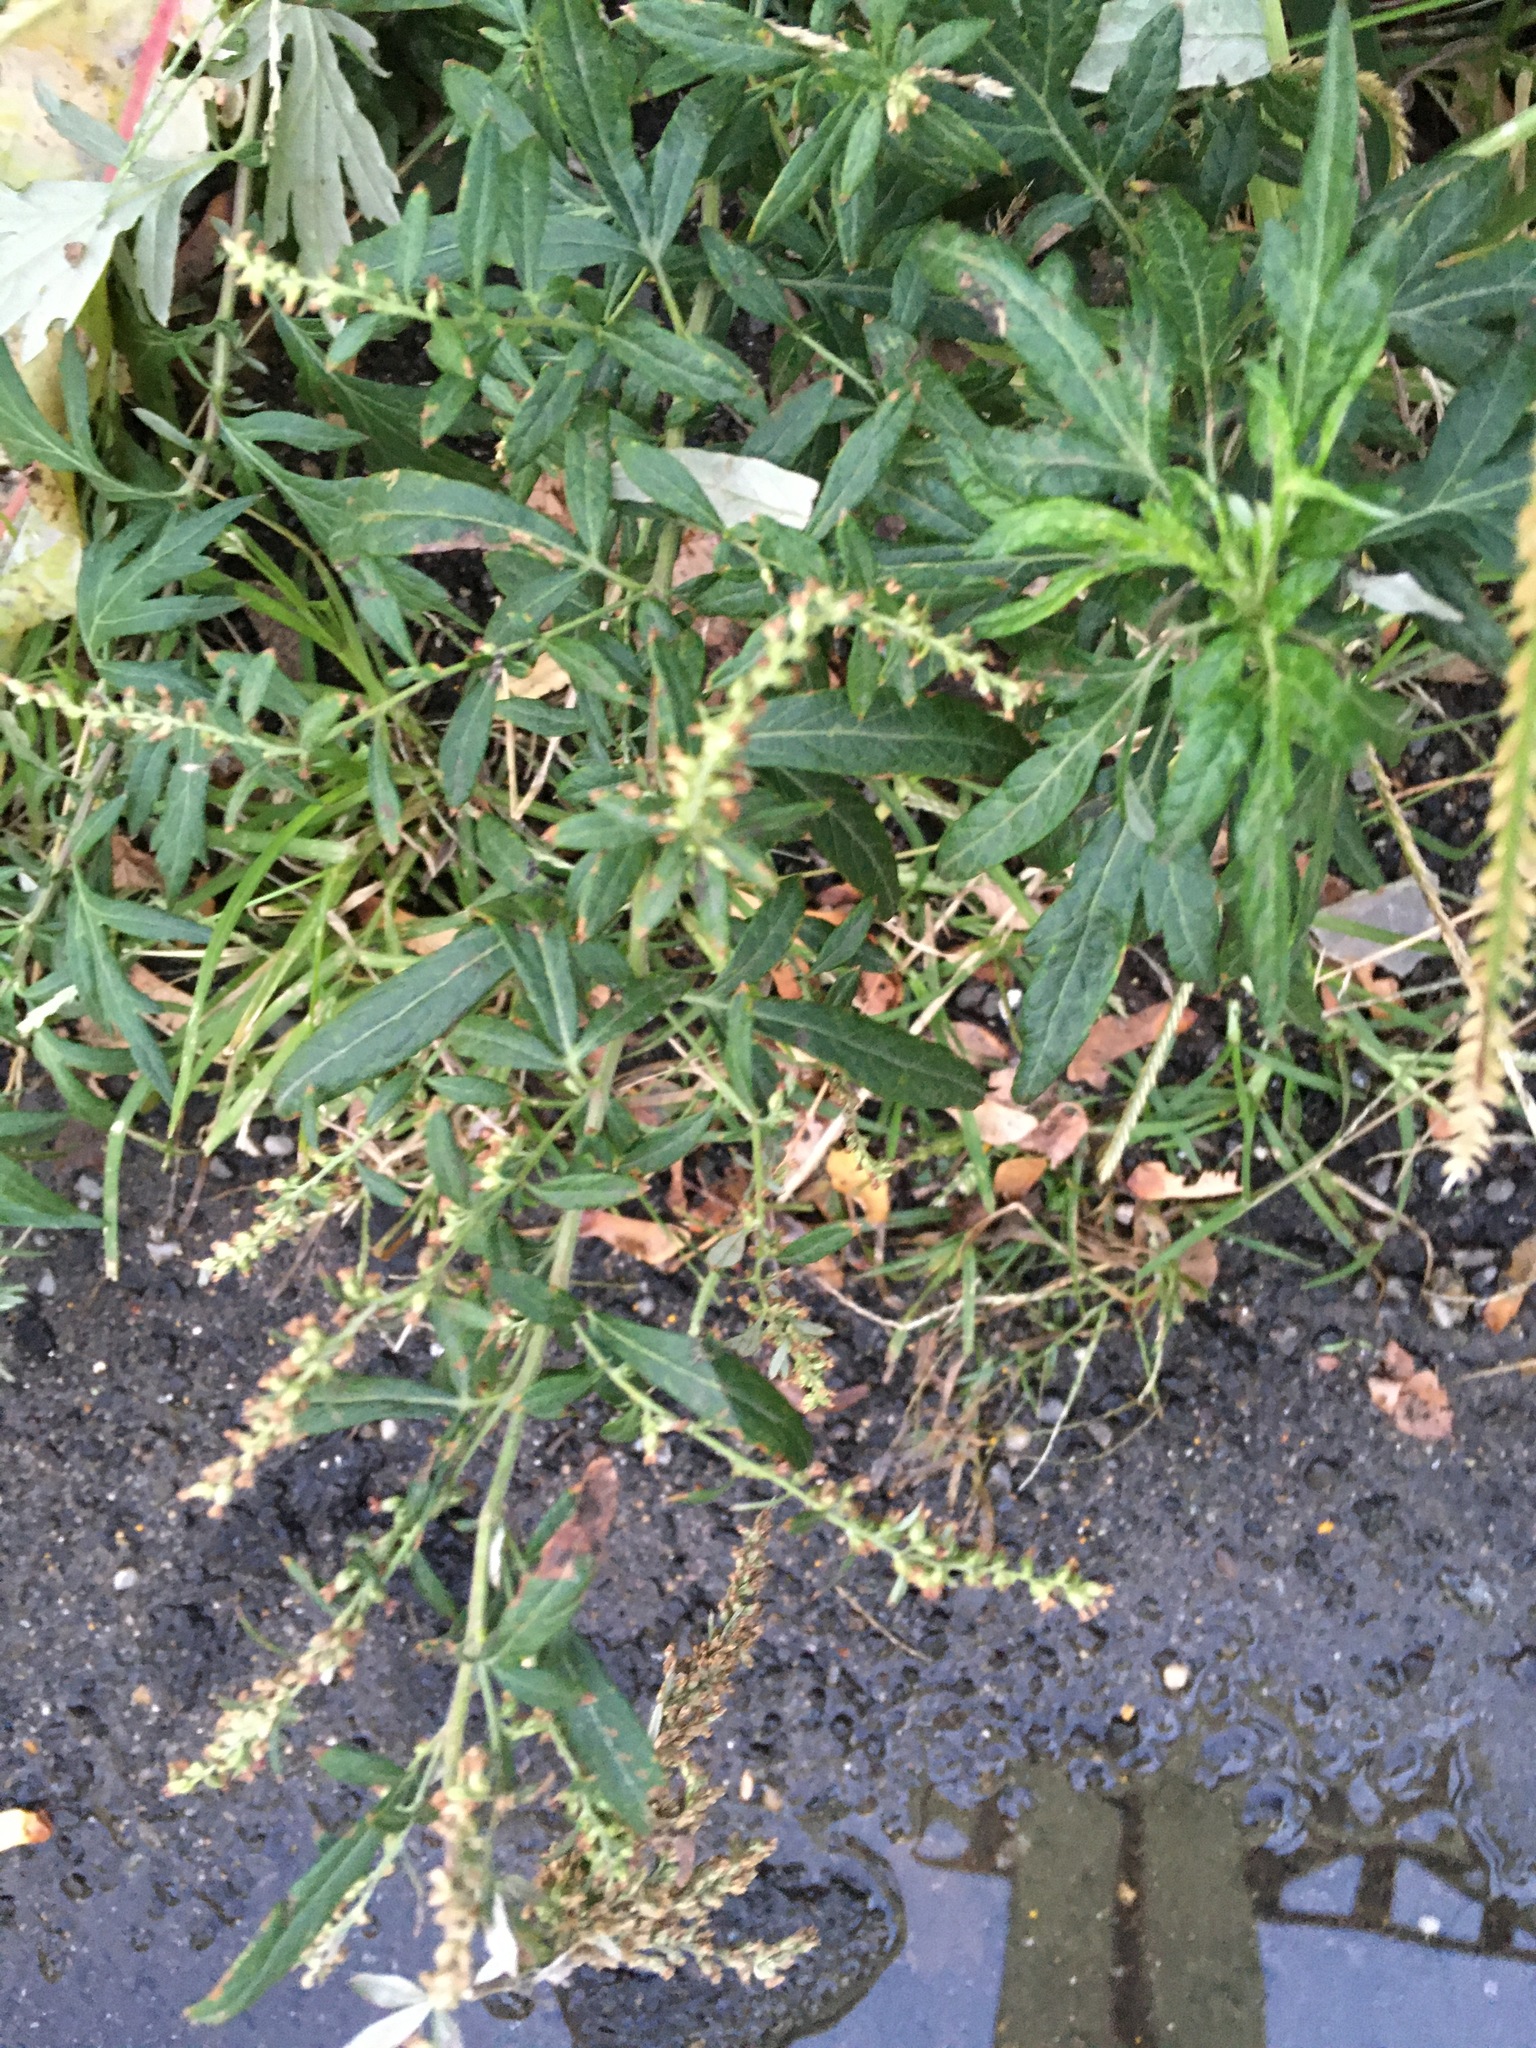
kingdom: Plantae
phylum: Tracheophyta
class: Magnoliopsida
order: Asterales
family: Asteraceae
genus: Artemisia
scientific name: Artemisia vulgaris
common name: Mugwort
